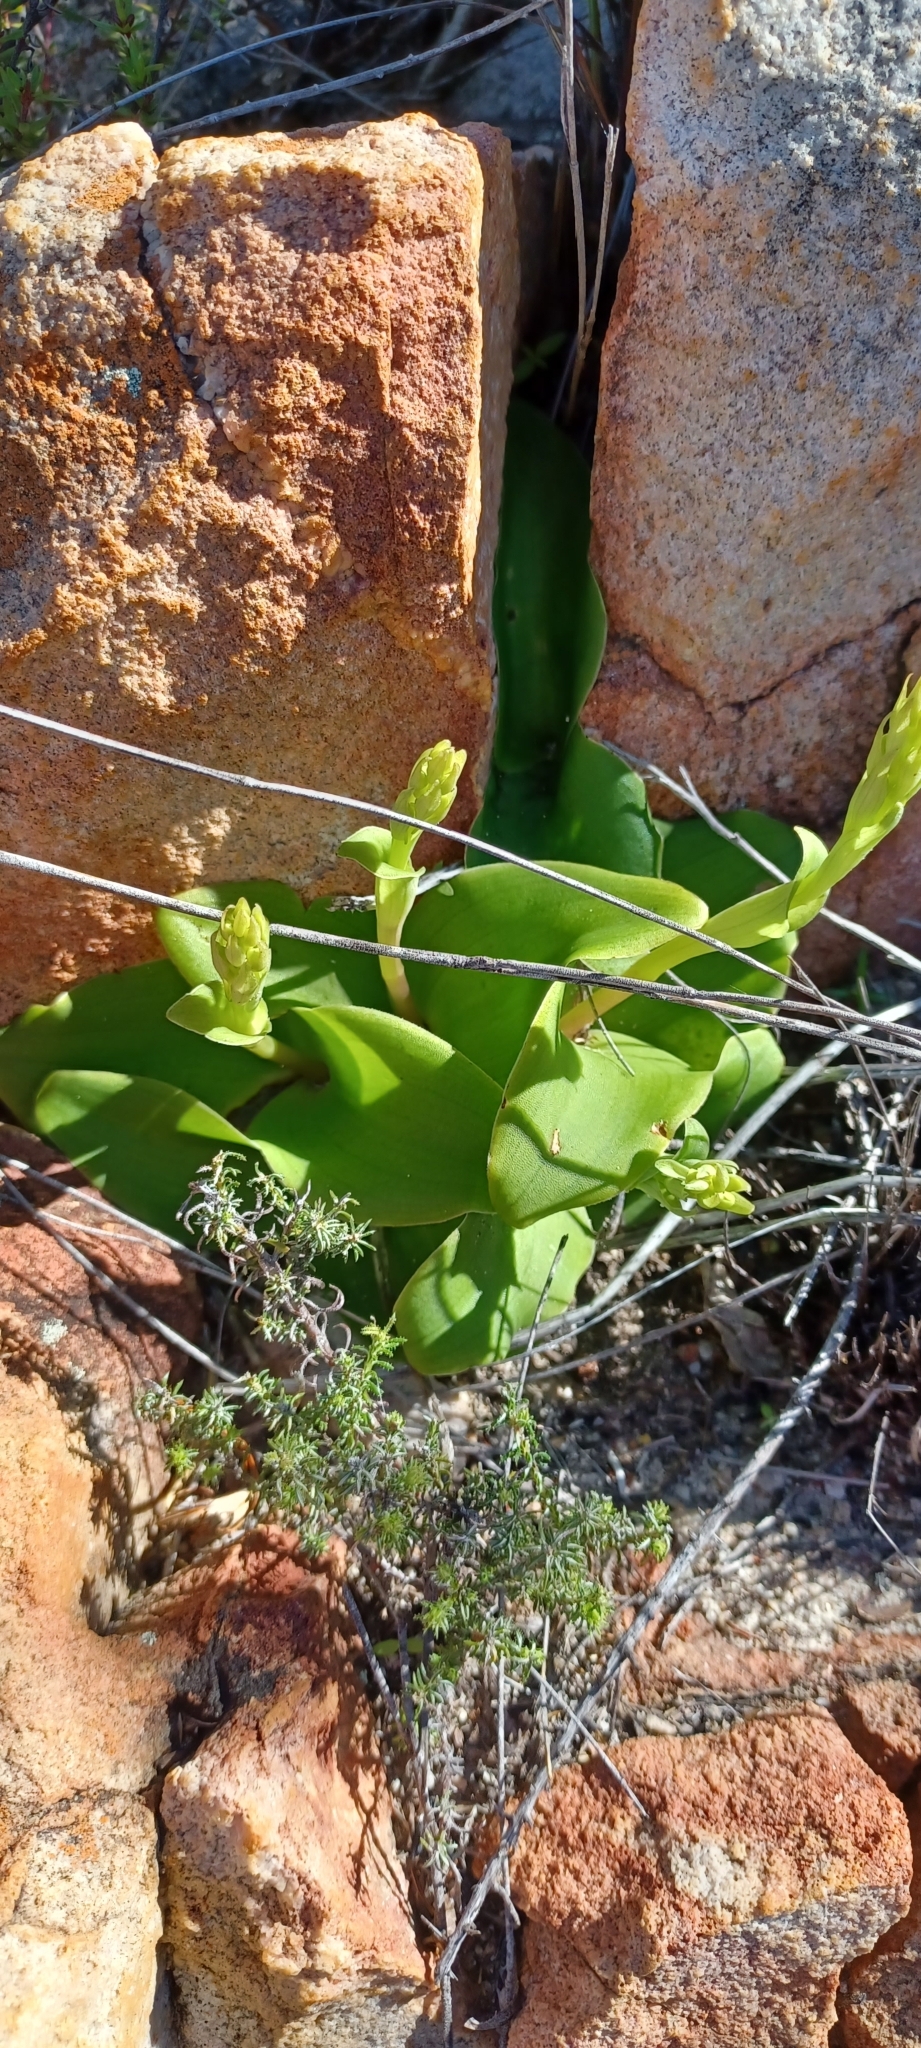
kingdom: Plantae
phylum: Tracheophyta
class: Liliopsida
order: Asparagales
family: Orchidaceae
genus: Satyrium
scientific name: Satyrium humile
